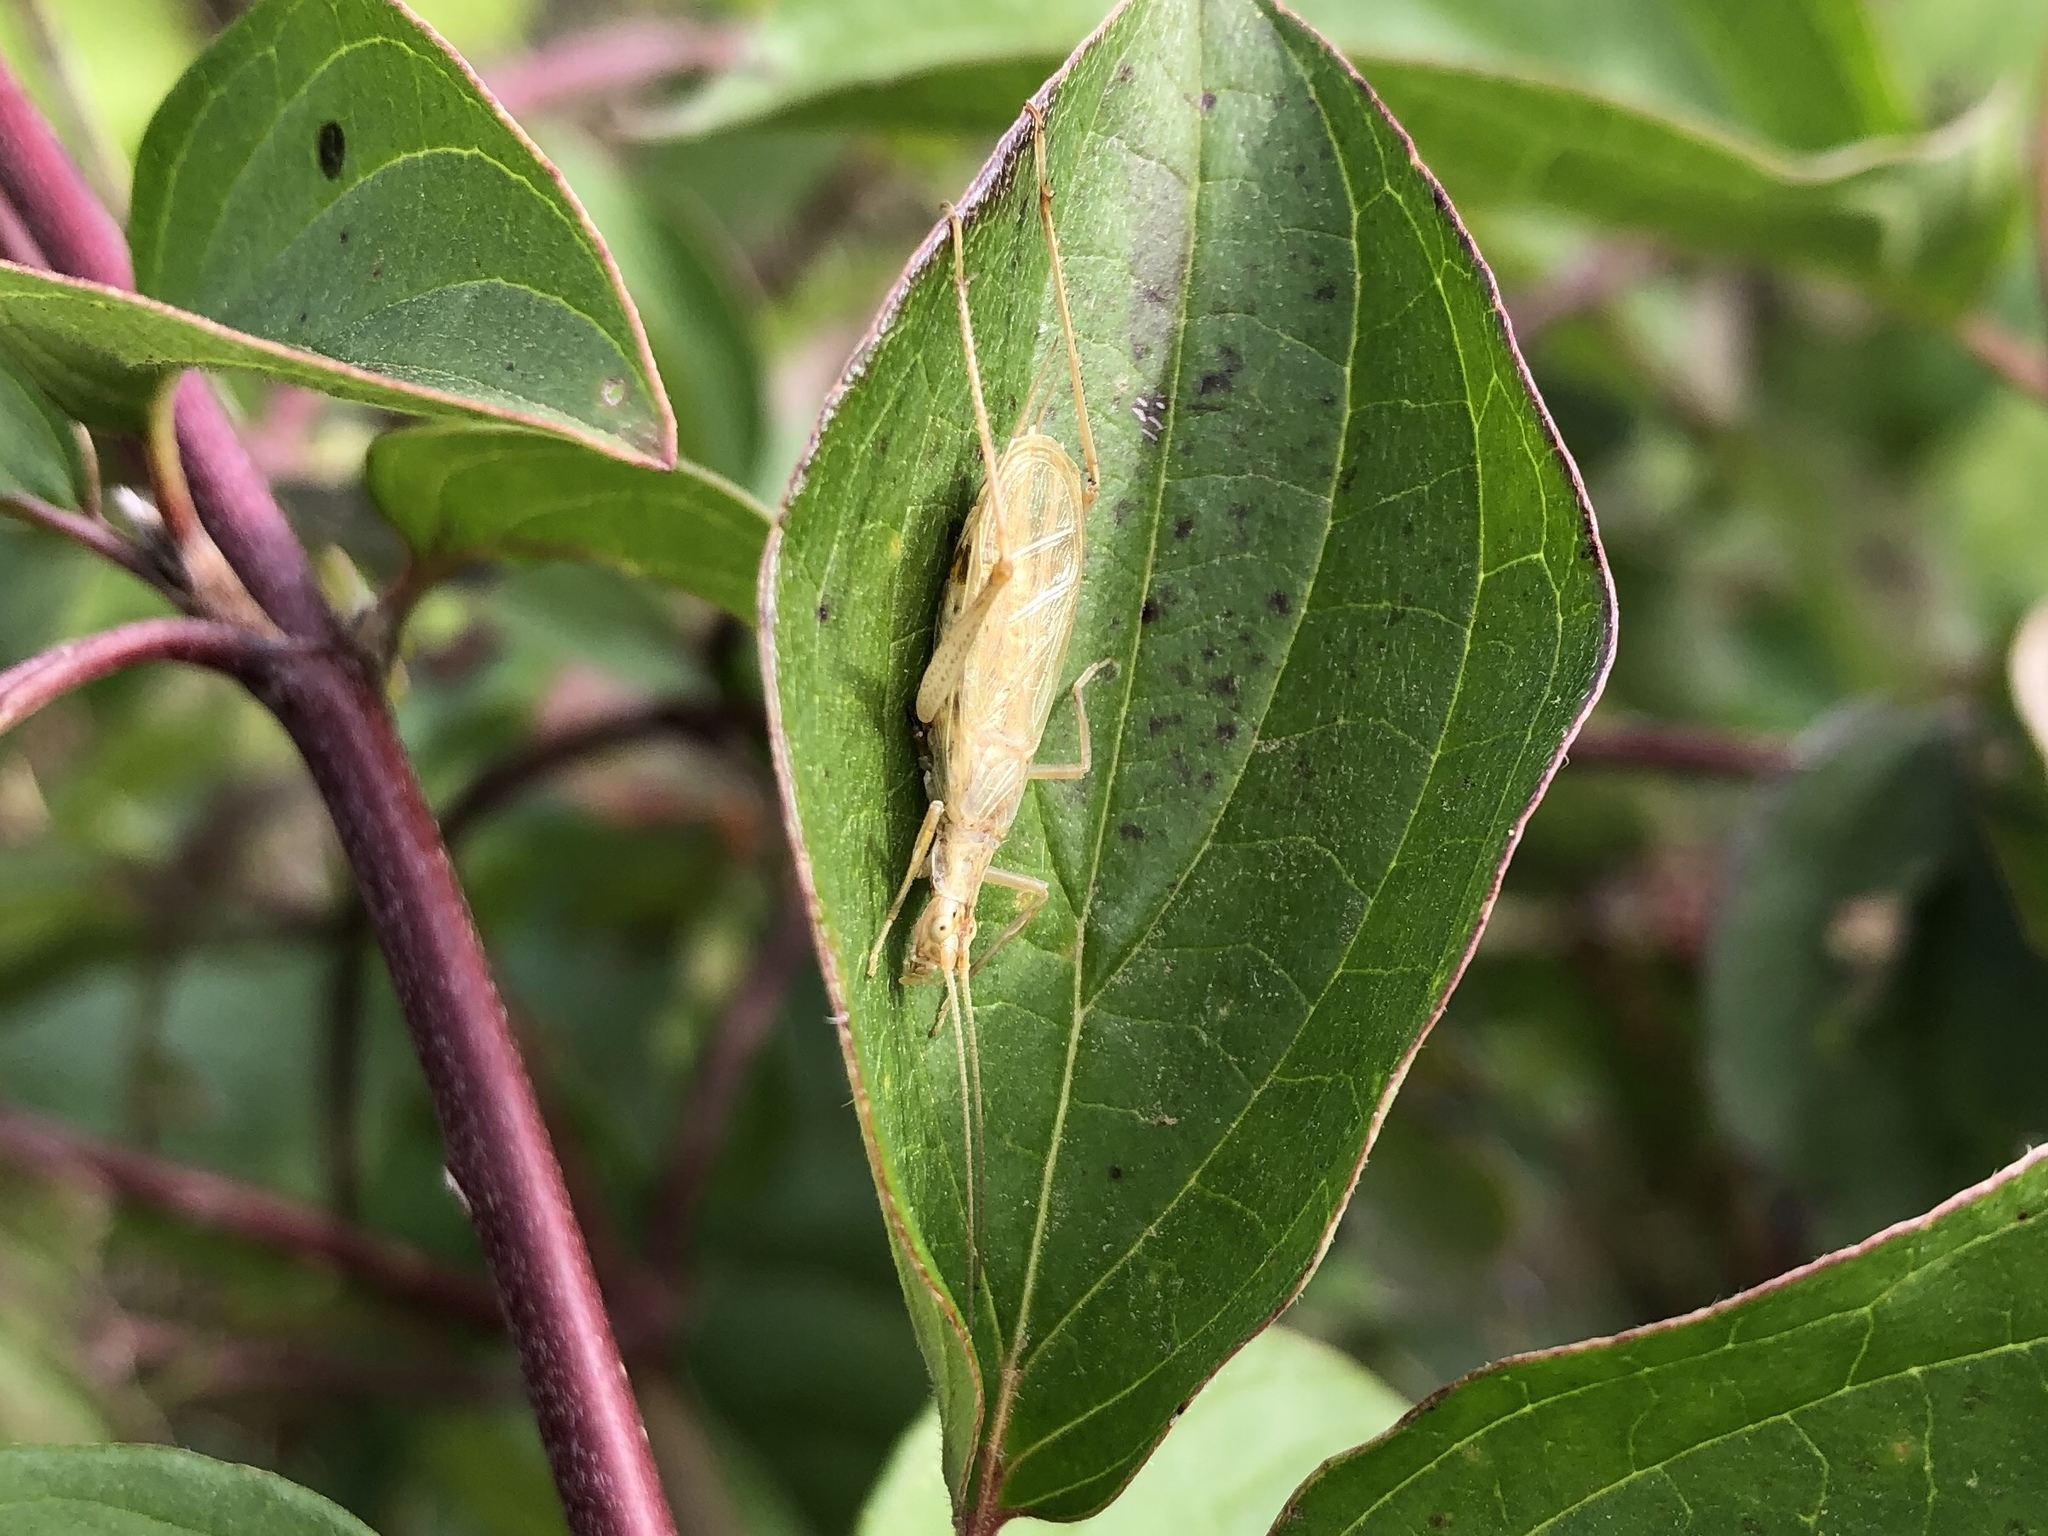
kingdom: Animalia
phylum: Arthropoda
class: Insecta
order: Orthoptera
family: Gryllidae
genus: Oecanthus
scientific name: Oecanthus pellucens
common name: Tree-cricket
